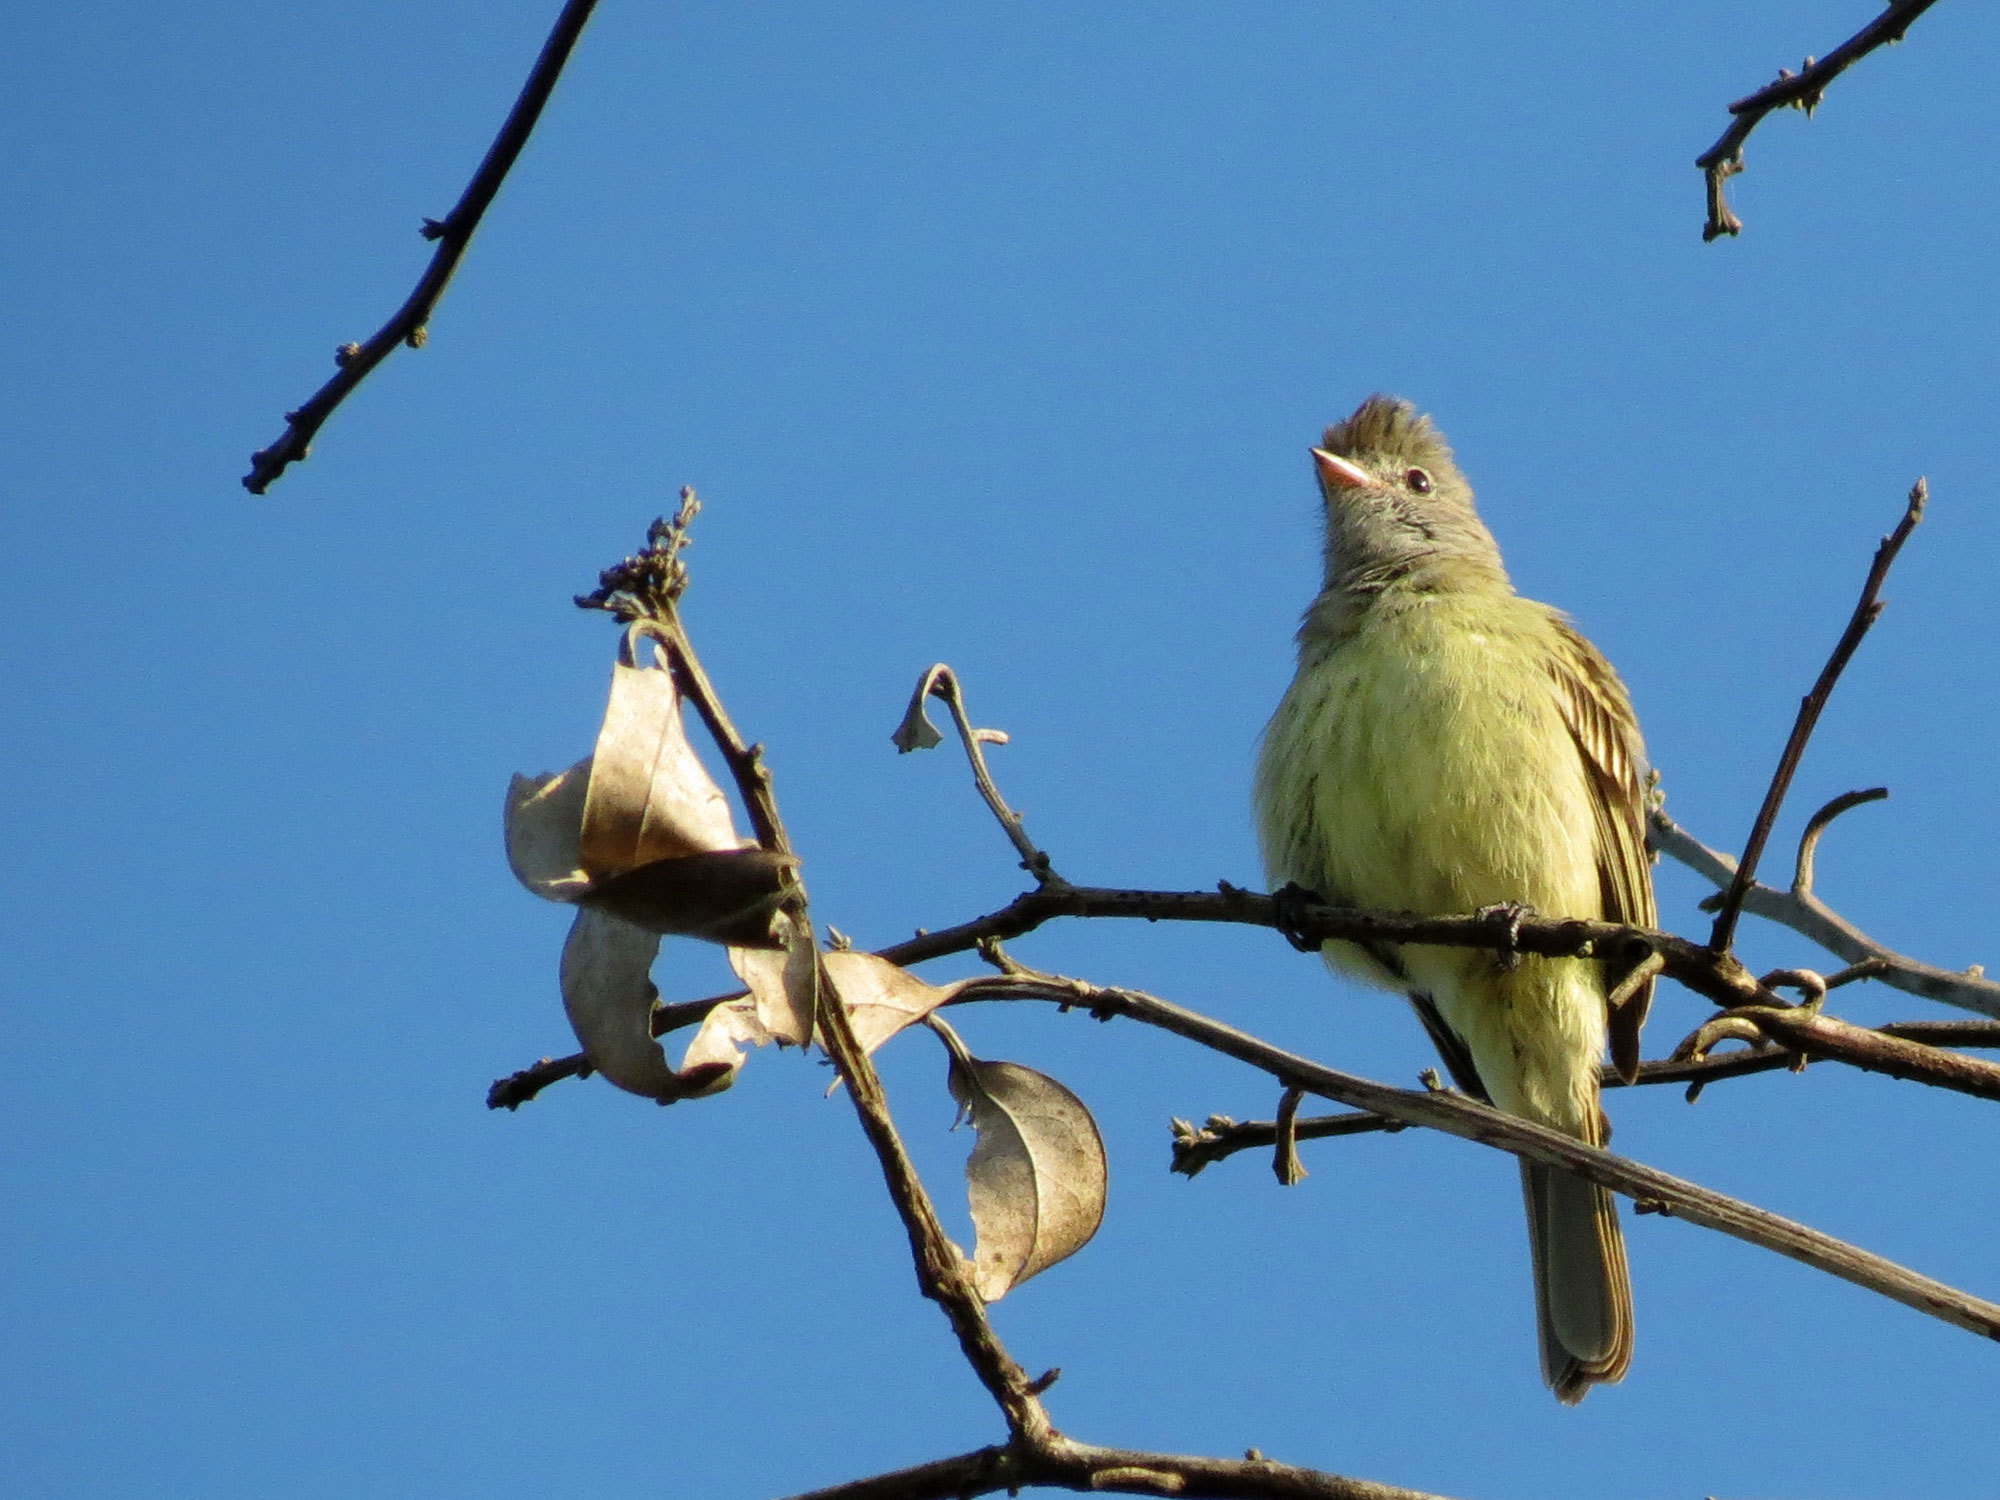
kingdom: Animalia
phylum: Chordata
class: Aves
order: Passeriformes
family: Tyrannidae
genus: Elaenia
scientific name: Elaenia flavogaster
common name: Yellow-bellied elaenia
